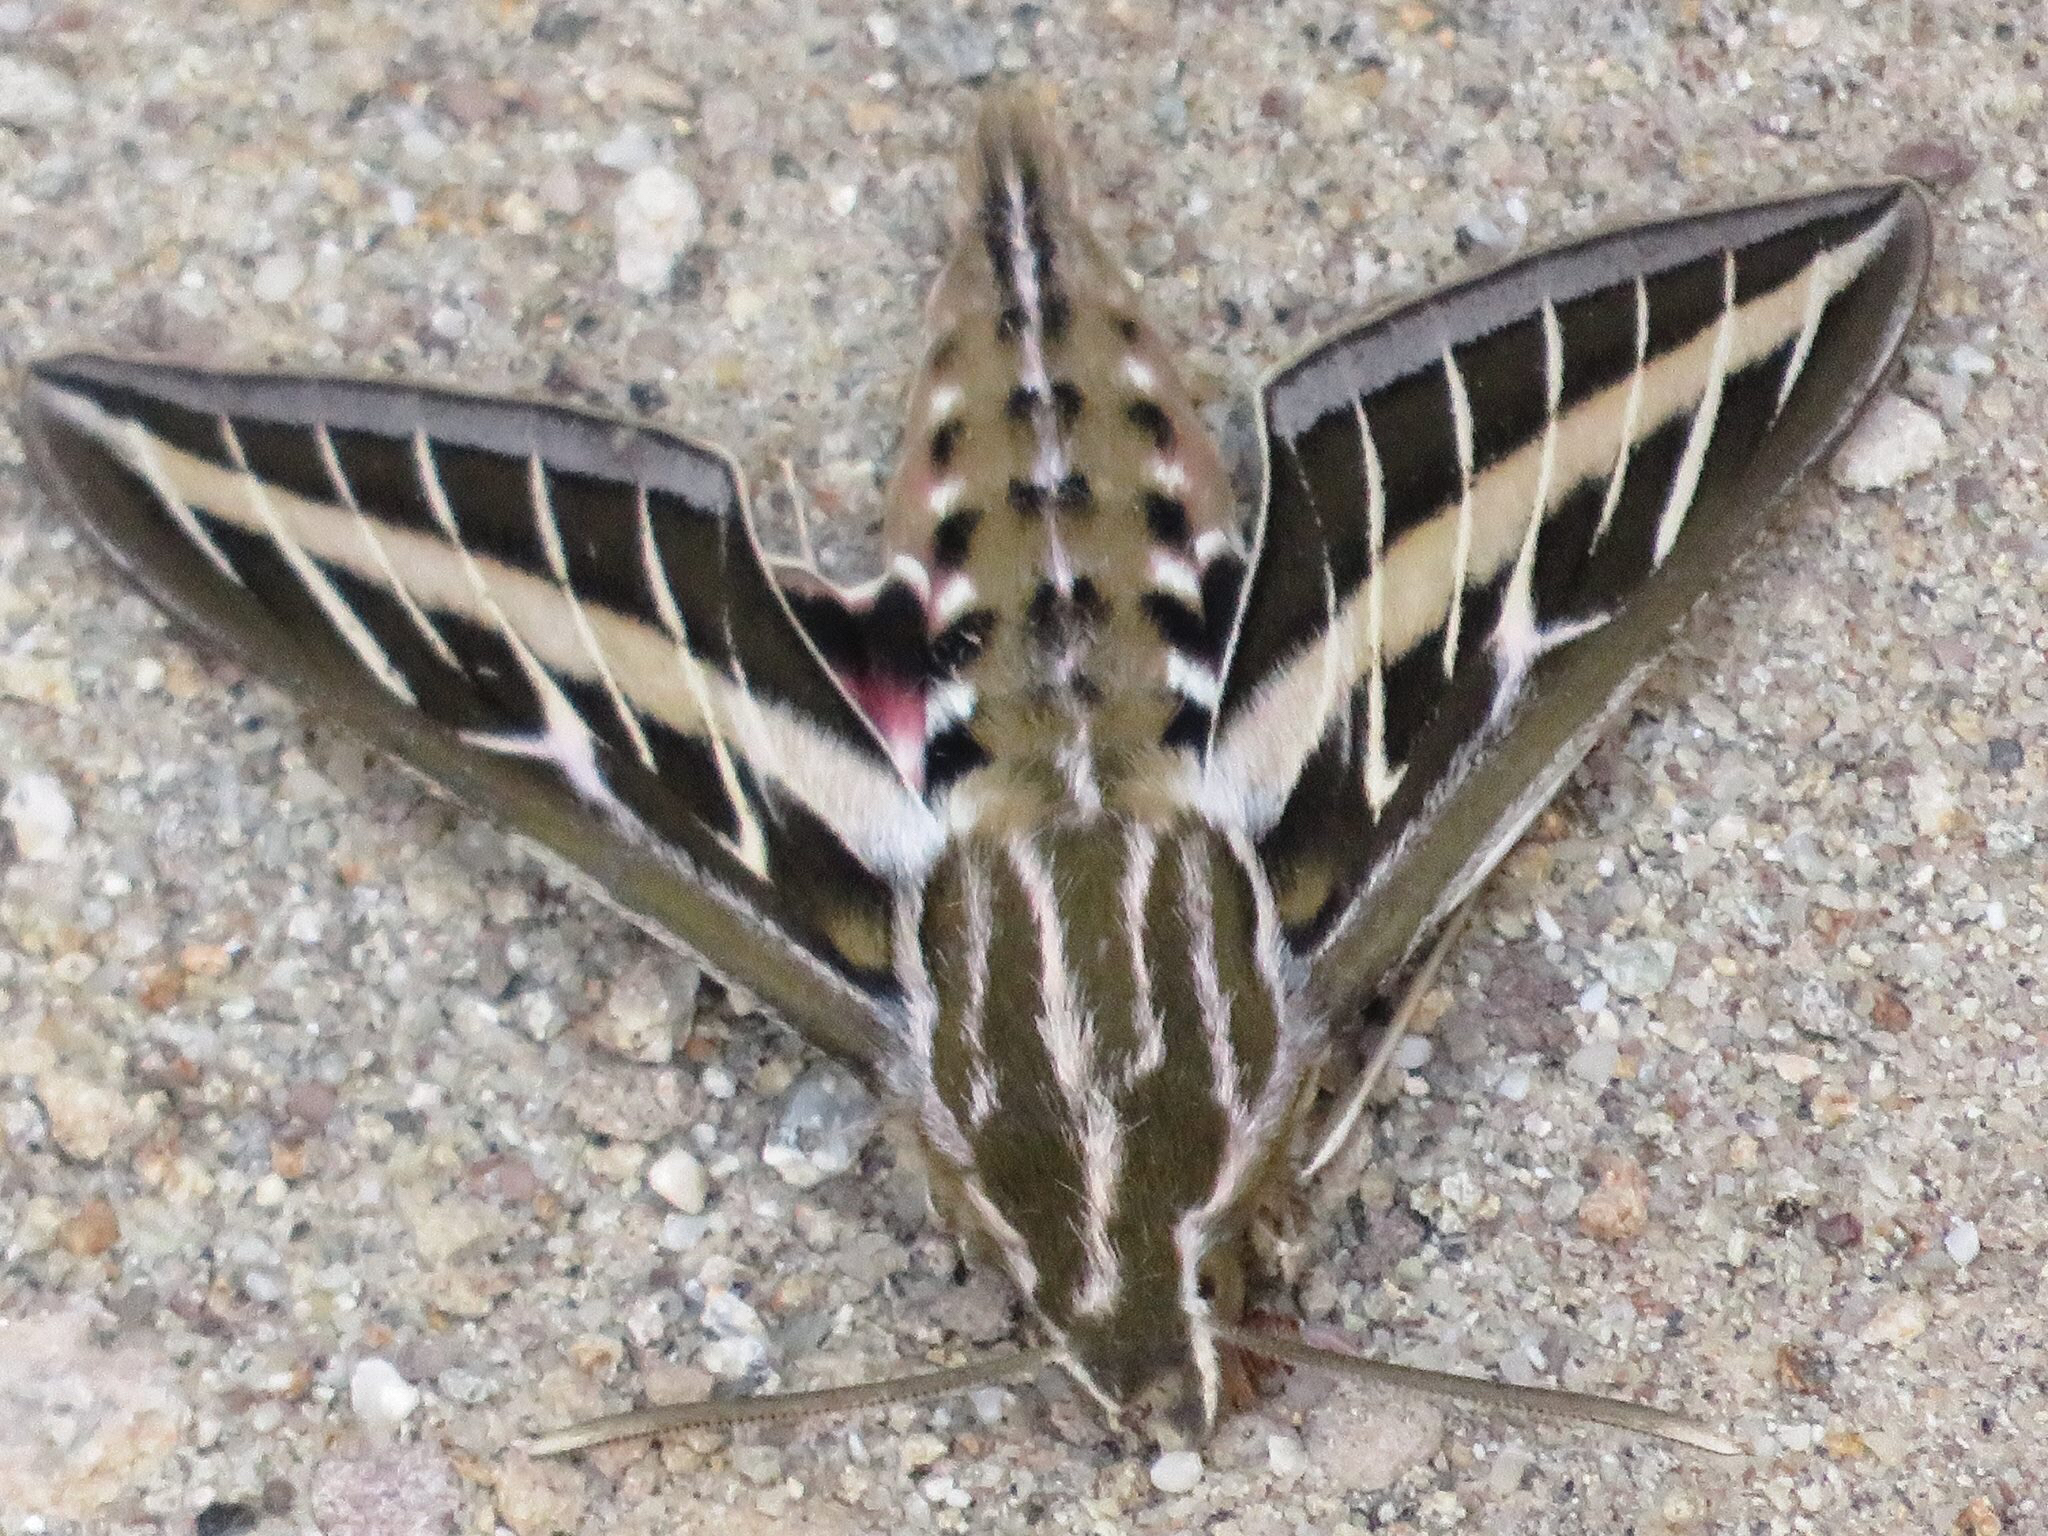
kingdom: Animalia
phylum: Arthropoda
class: Insecta
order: Lepidoptera
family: Sphingidae
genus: Hyles
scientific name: Hyles lineata
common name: White-lined sphinx
